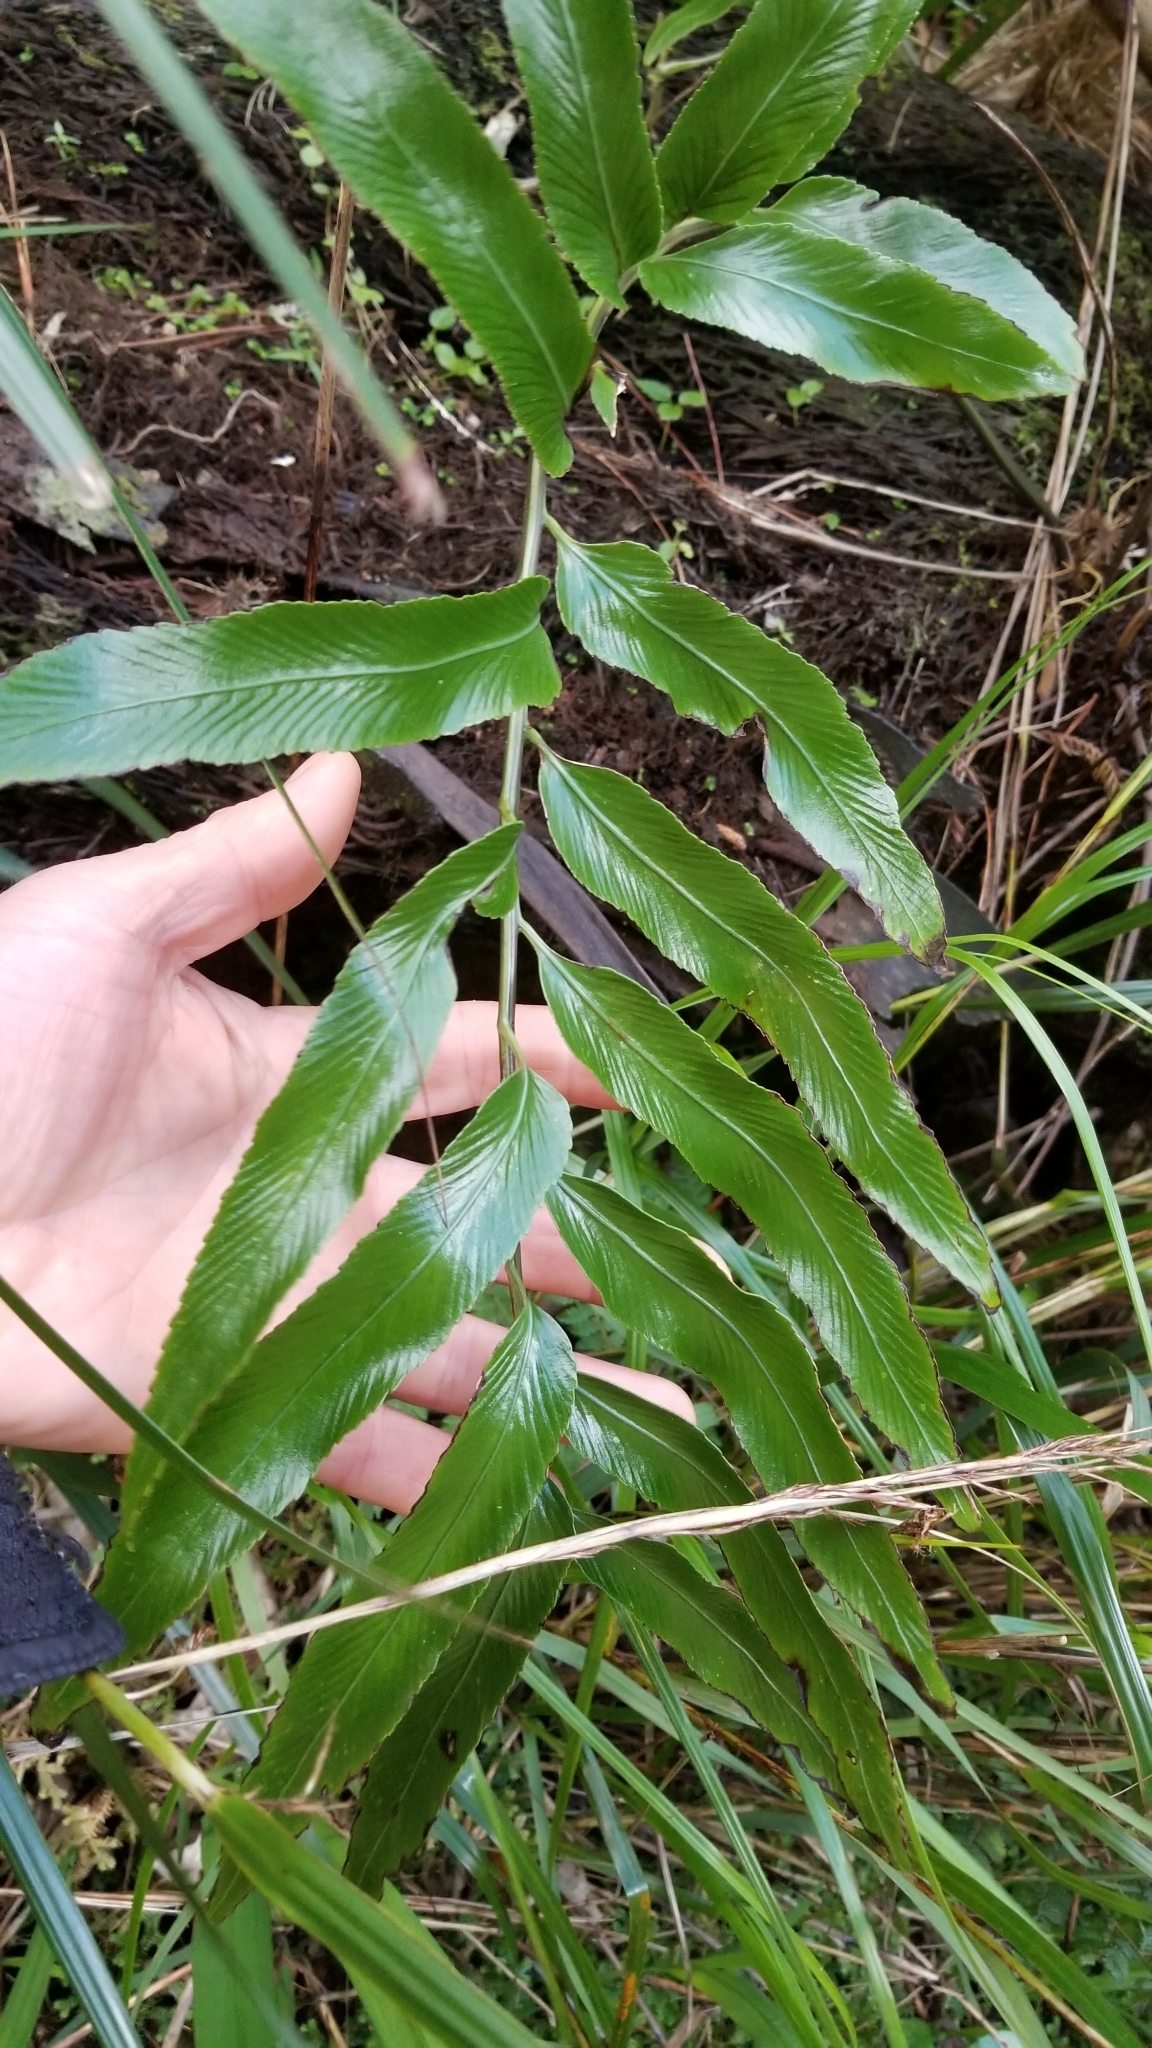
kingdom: Plantae
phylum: Tracheophyta
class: Polypodiopsida
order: Polypodiales
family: Aspleniaceae
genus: Asplenium
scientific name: Asplenium oblongifolium
